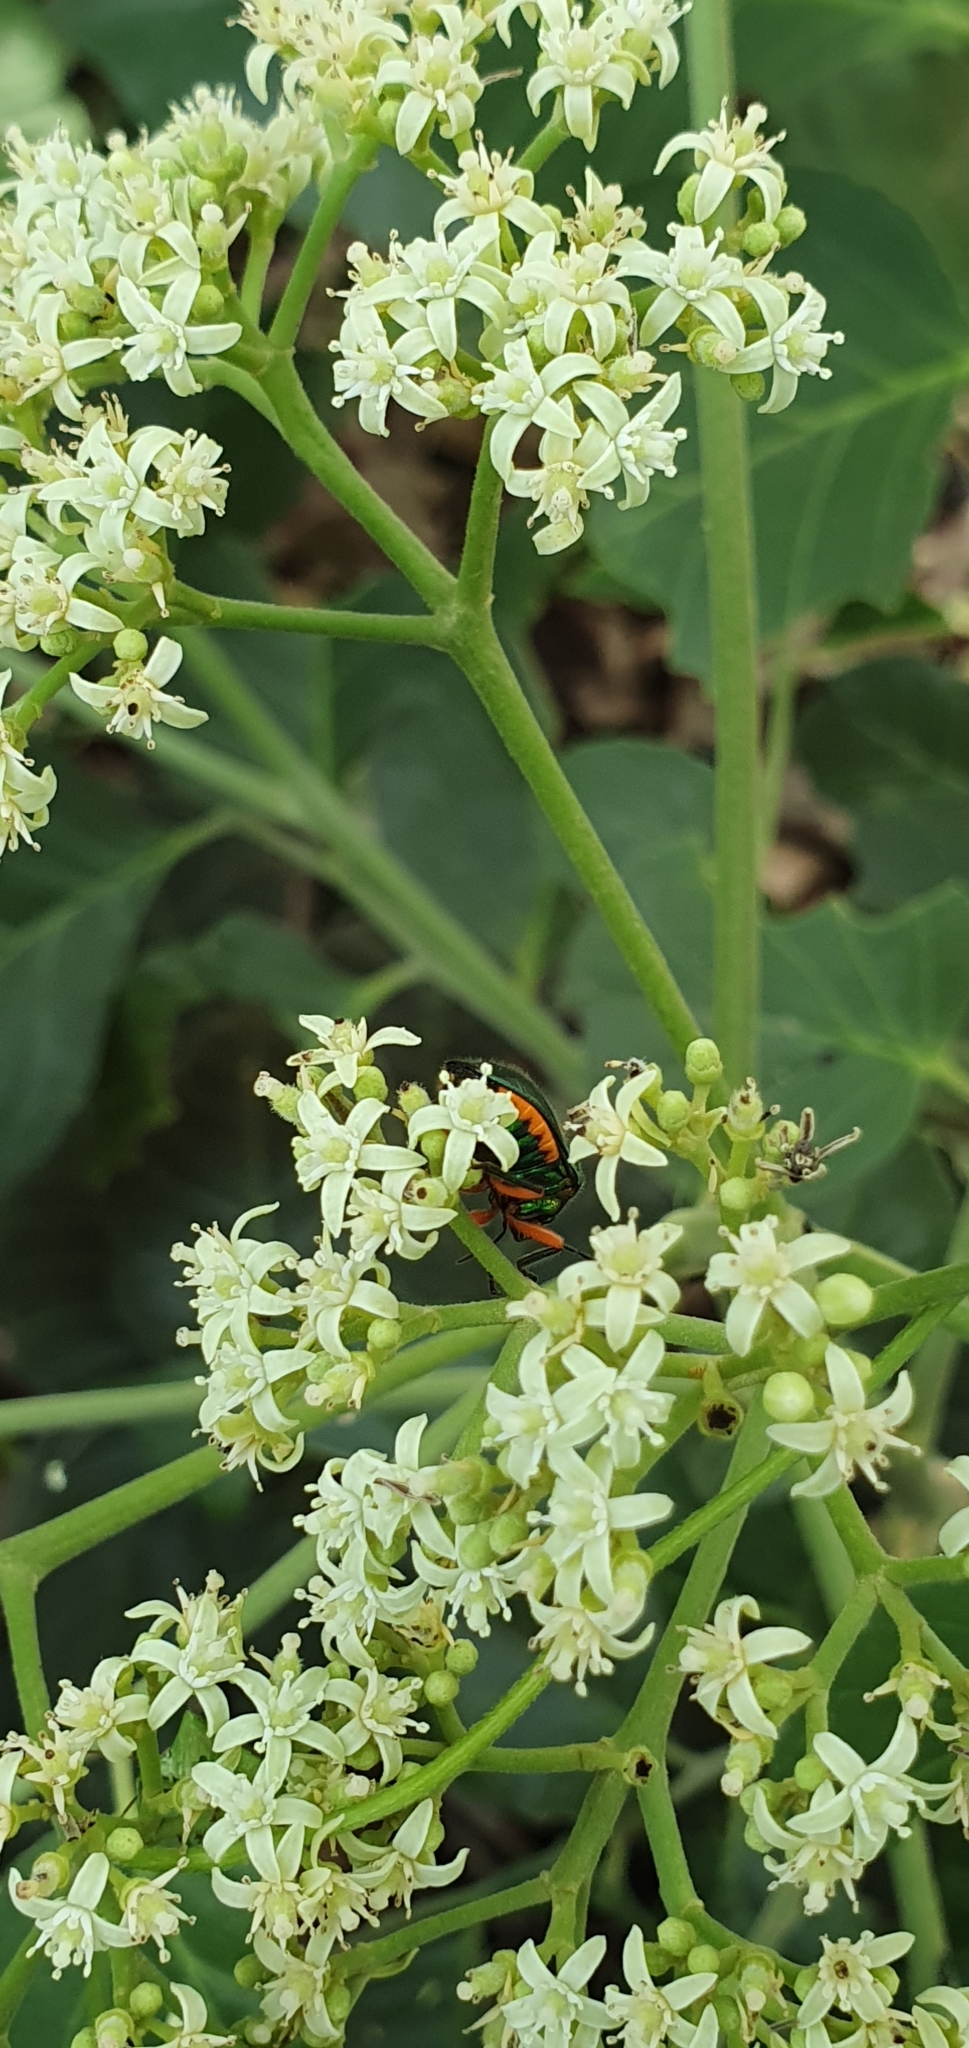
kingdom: Animalia
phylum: Arthropoda
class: Insecta
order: Hemiptera
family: Scutelleridae
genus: Lampromicra
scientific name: Lampromicra senator
